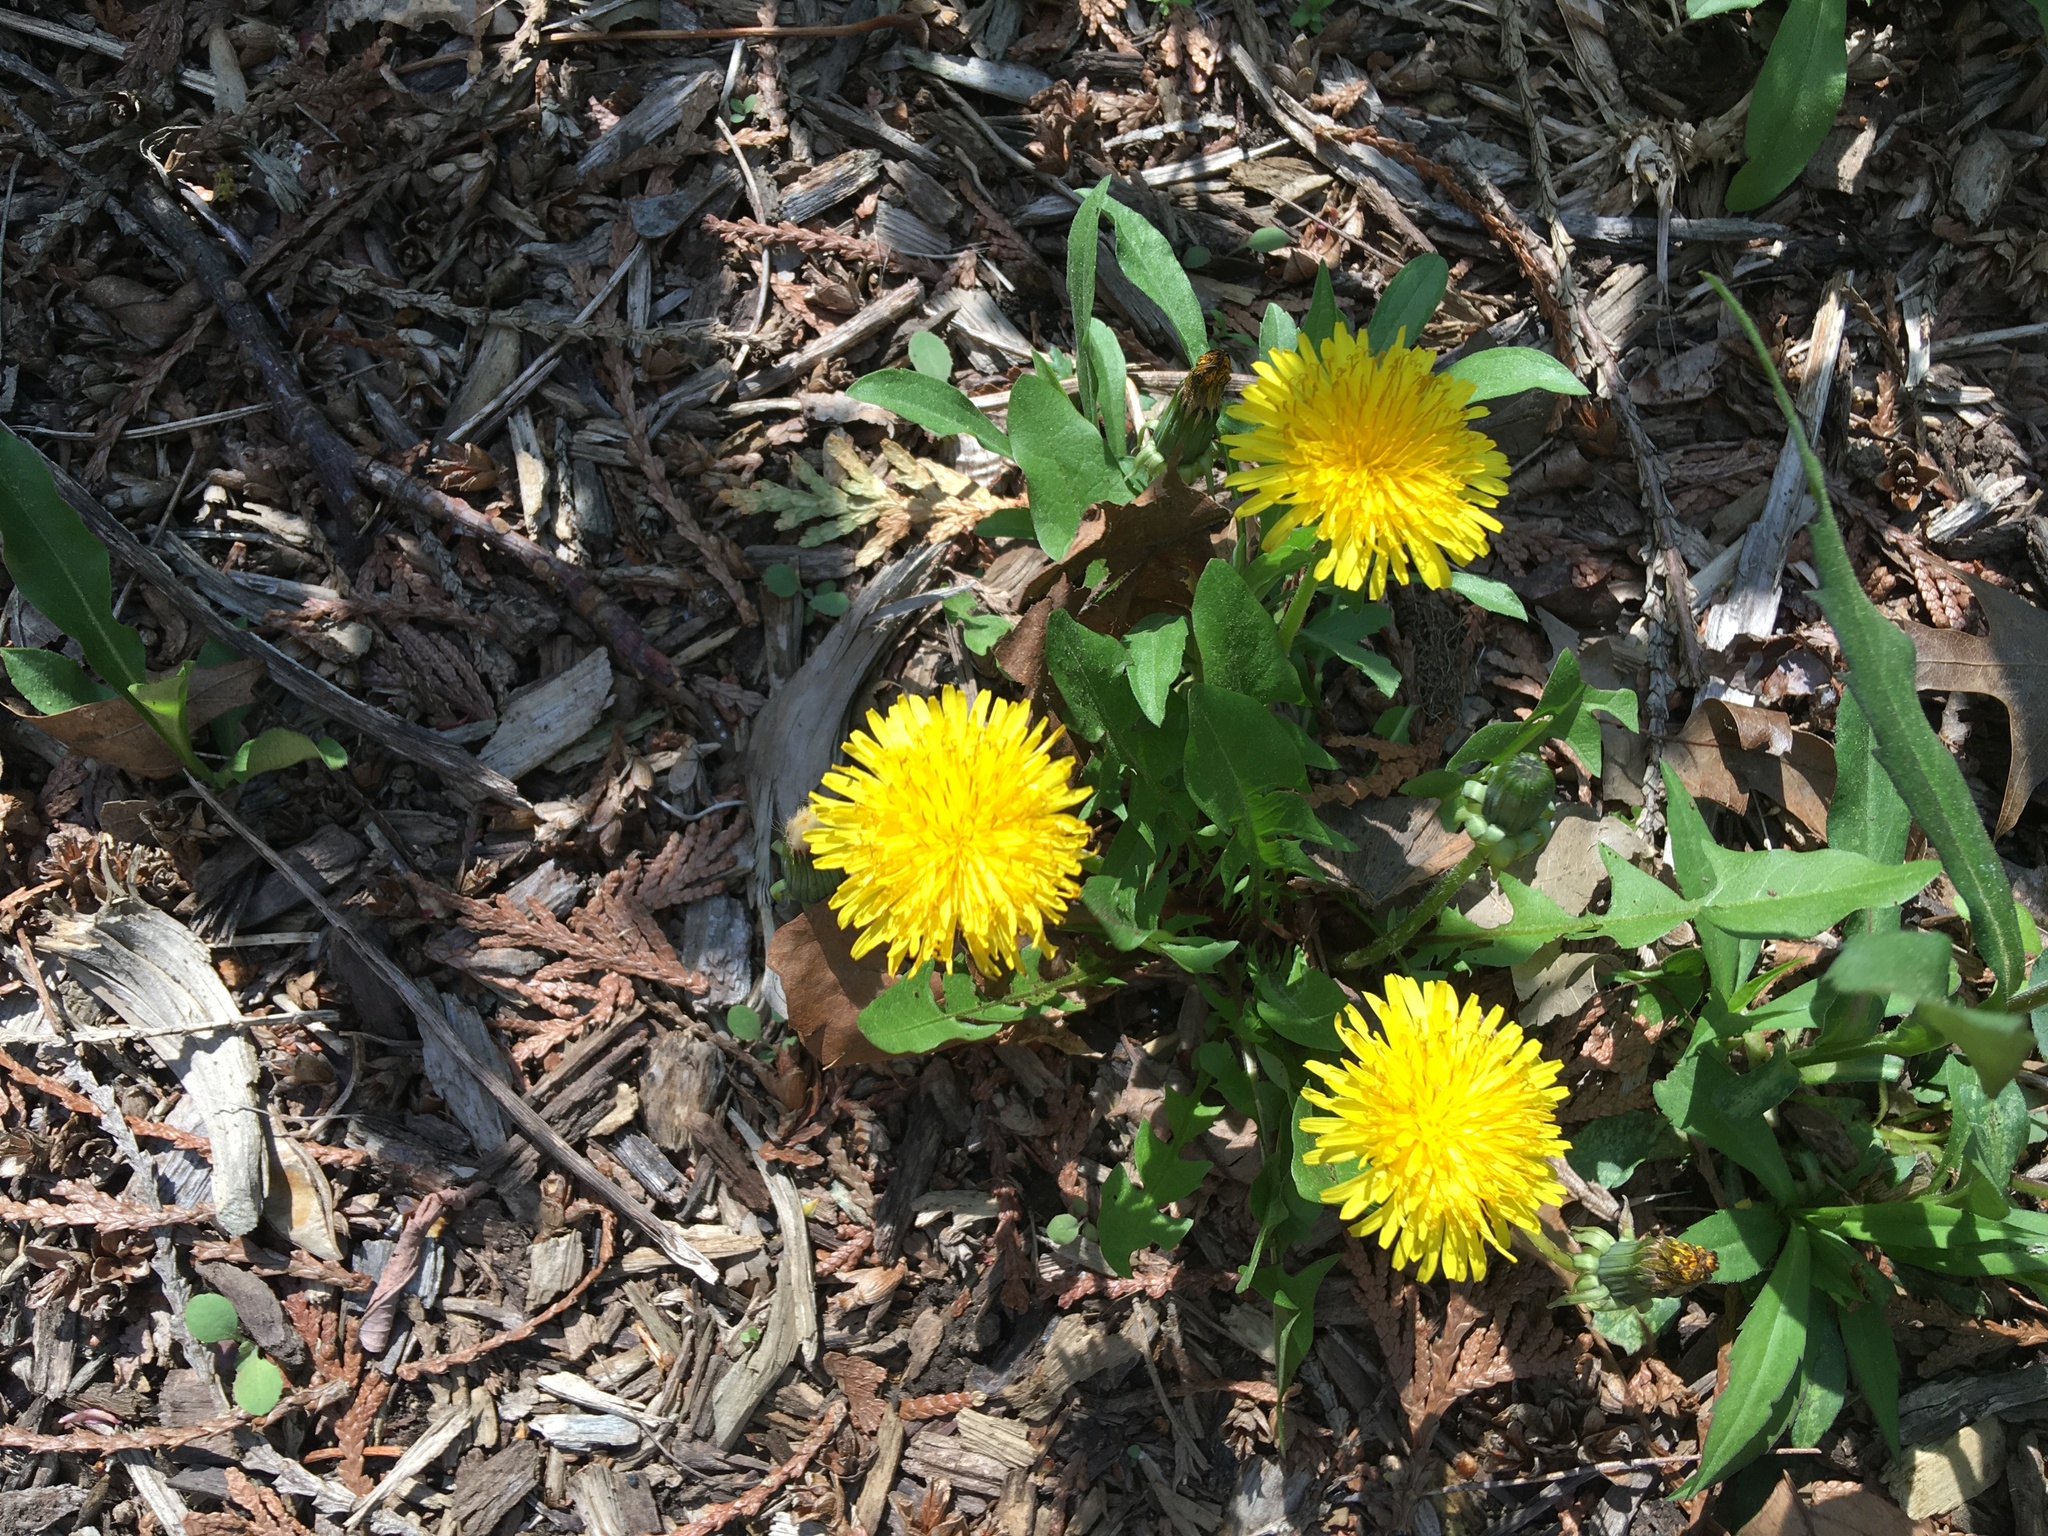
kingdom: Plantae
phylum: Tracheophyta
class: Magnoliopsida
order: Asterales
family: Asteraceae
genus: Taraxacum
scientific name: Taraxacum officinale
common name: Common dandelion
